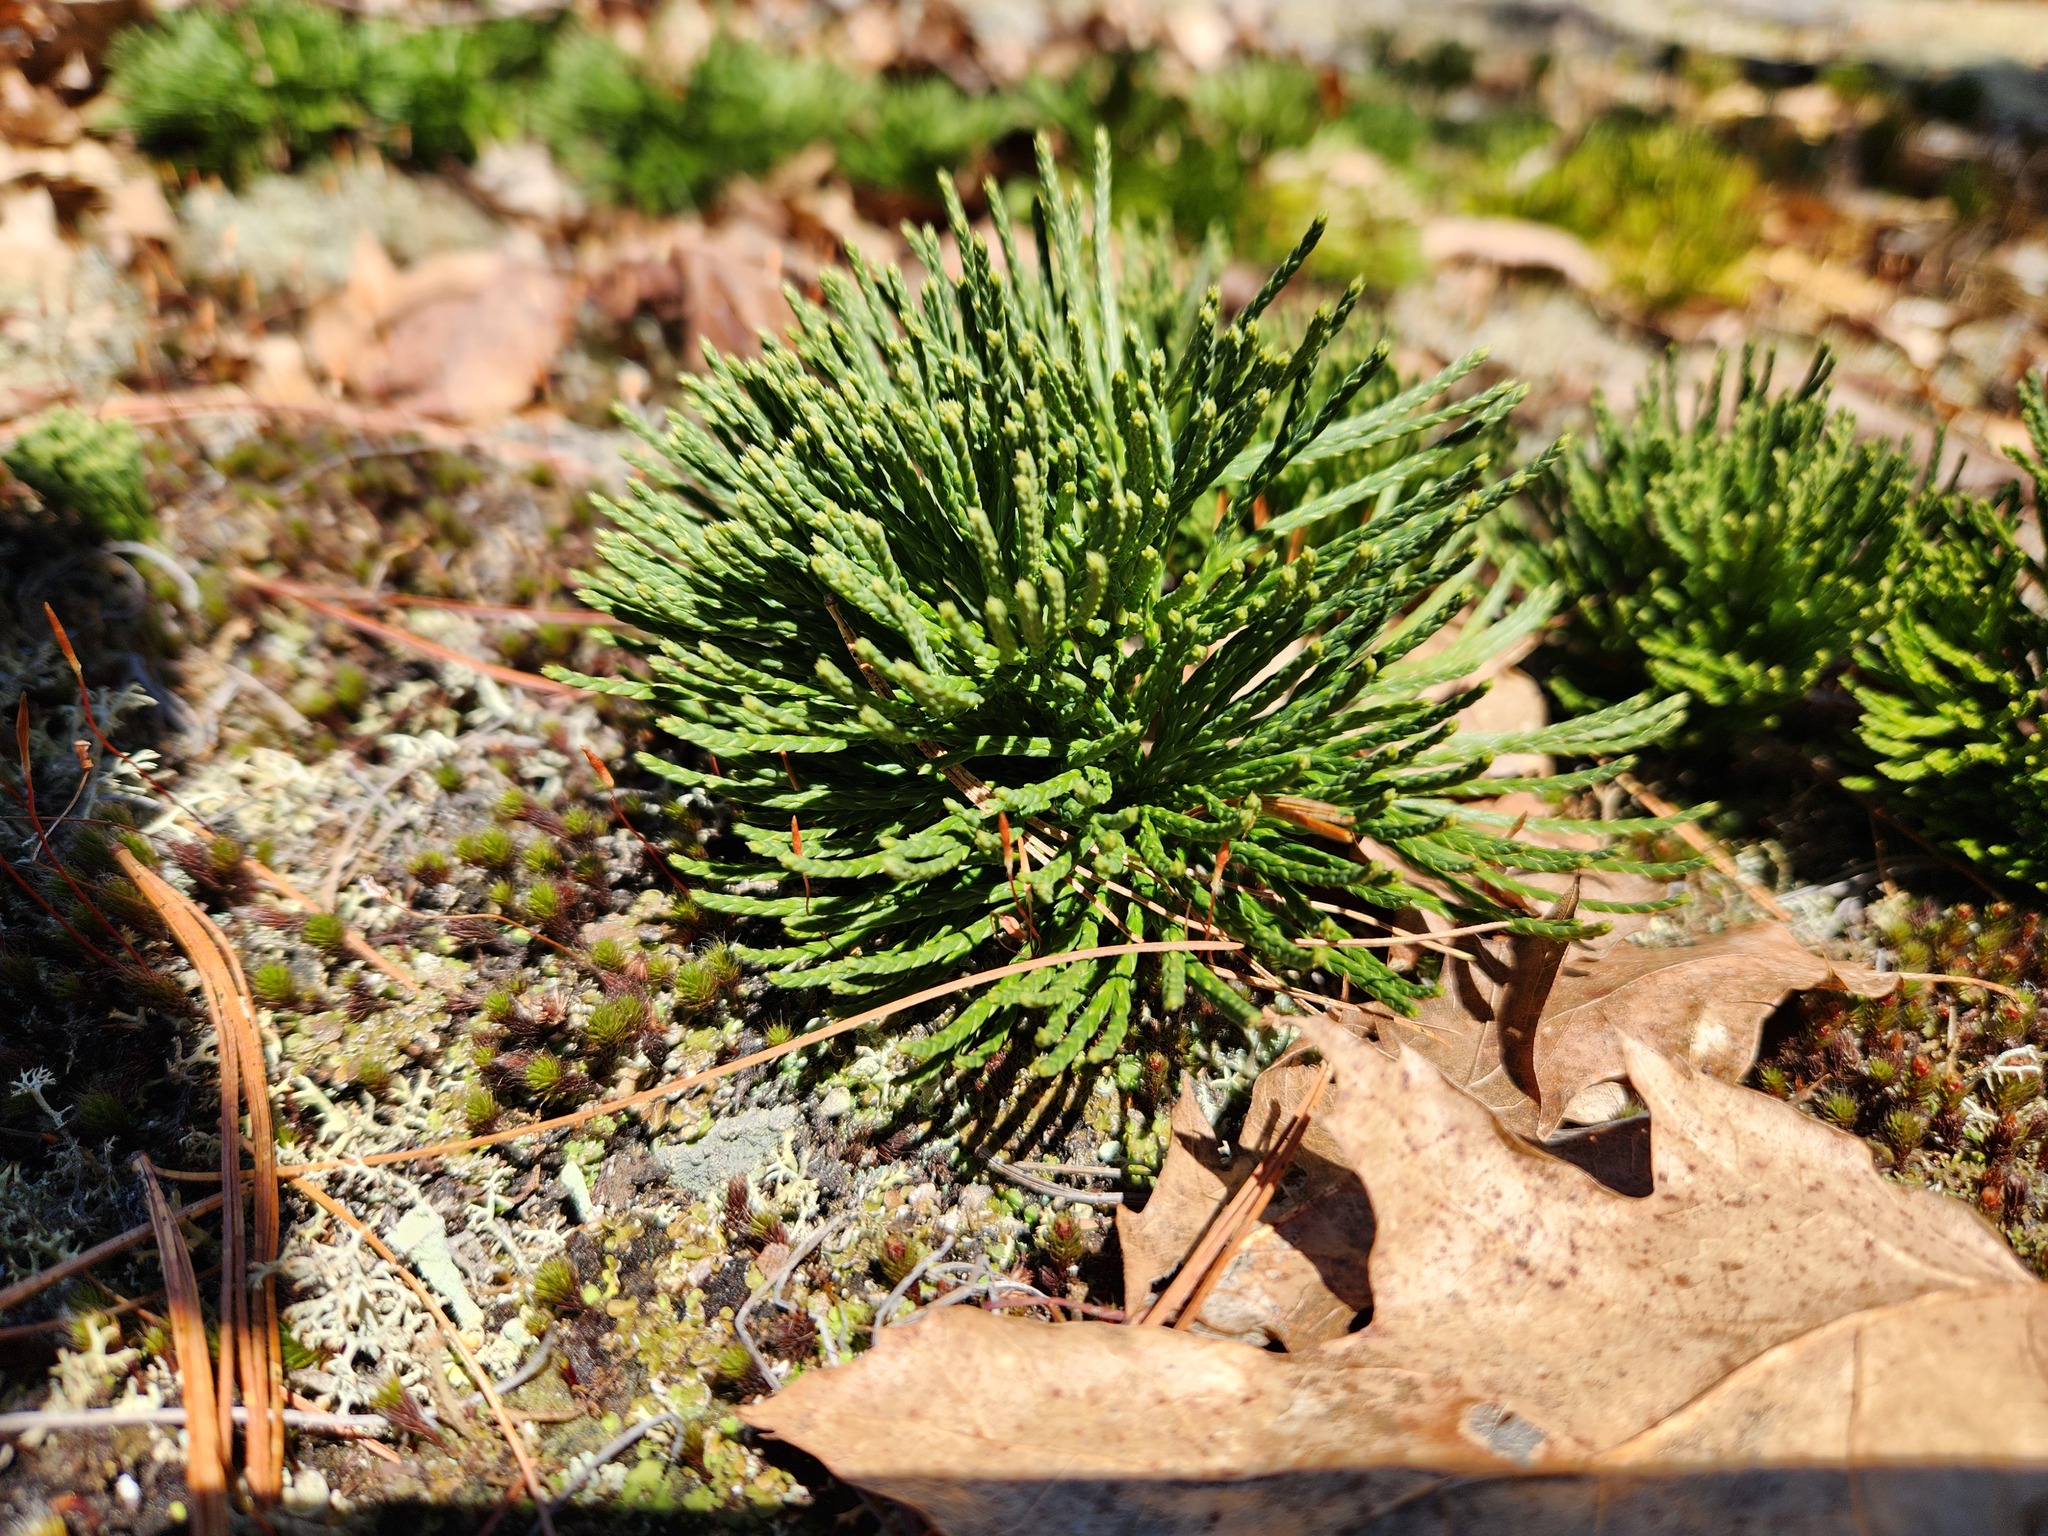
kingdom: Plantae
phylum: Tracheophyta
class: Lycopodiopsida
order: Lycopodiales
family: Lycopodiaceae
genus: Diphasiastrum
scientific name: Diphasiastrum tristachyum
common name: Blue ground-cedar
